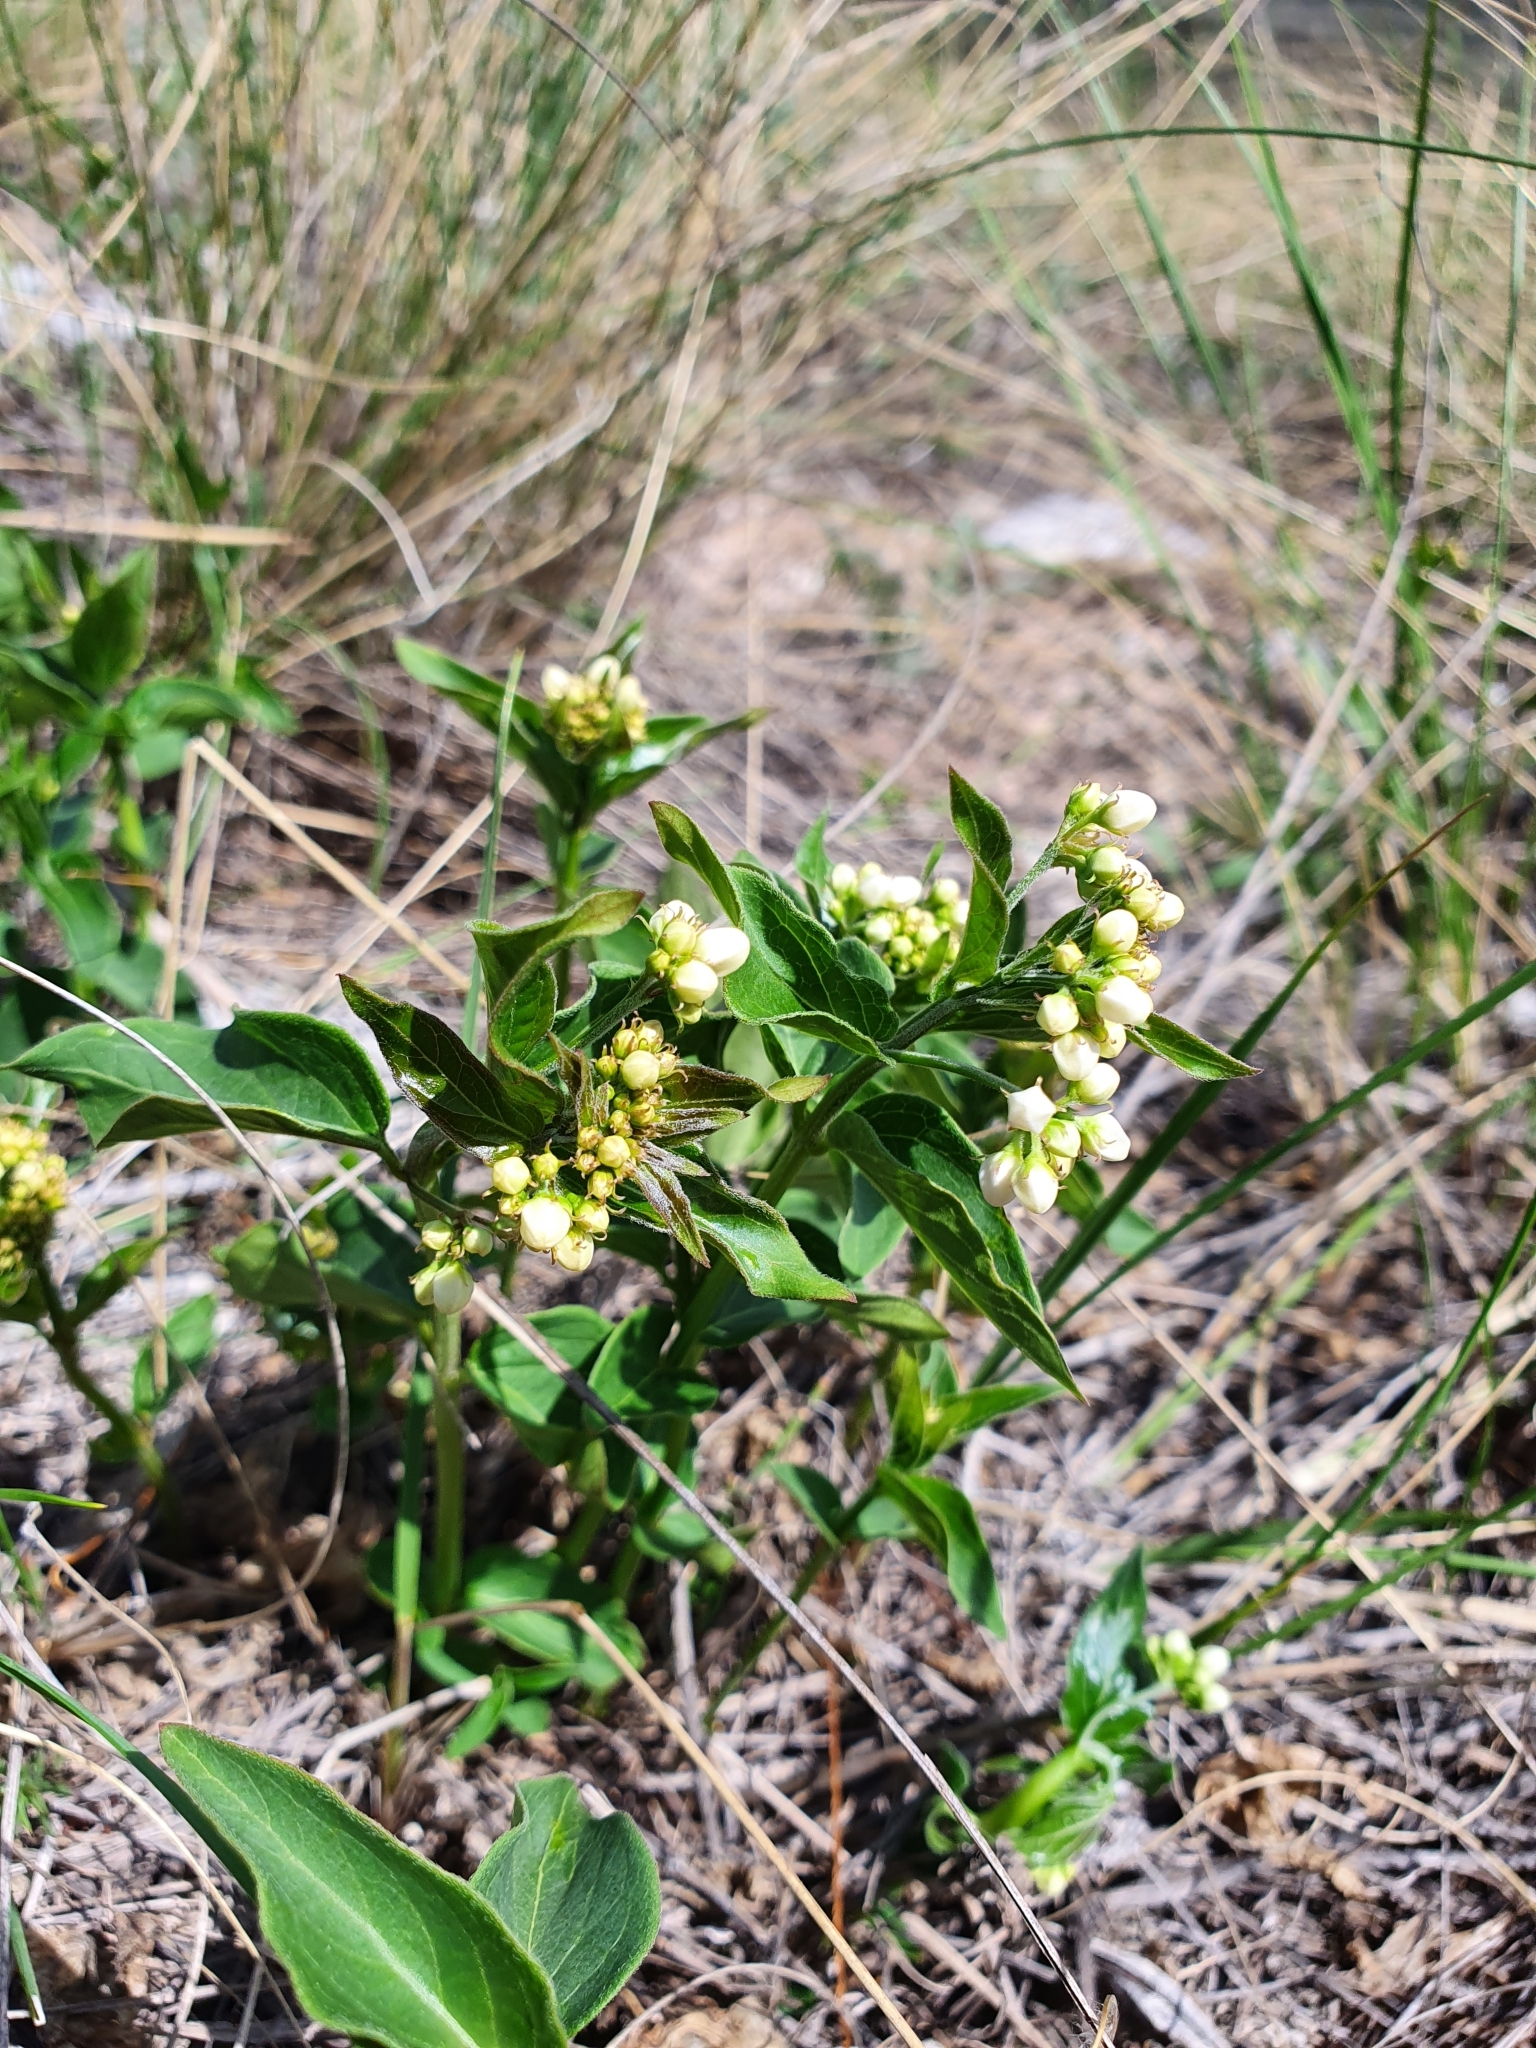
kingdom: Plantae
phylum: Tracheophyta
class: Magnoliopsida
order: Gentianales
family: Apocynaceae
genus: Vincetoxicum
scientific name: Vincetoxicum hirundinaria
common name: White swallowwort
